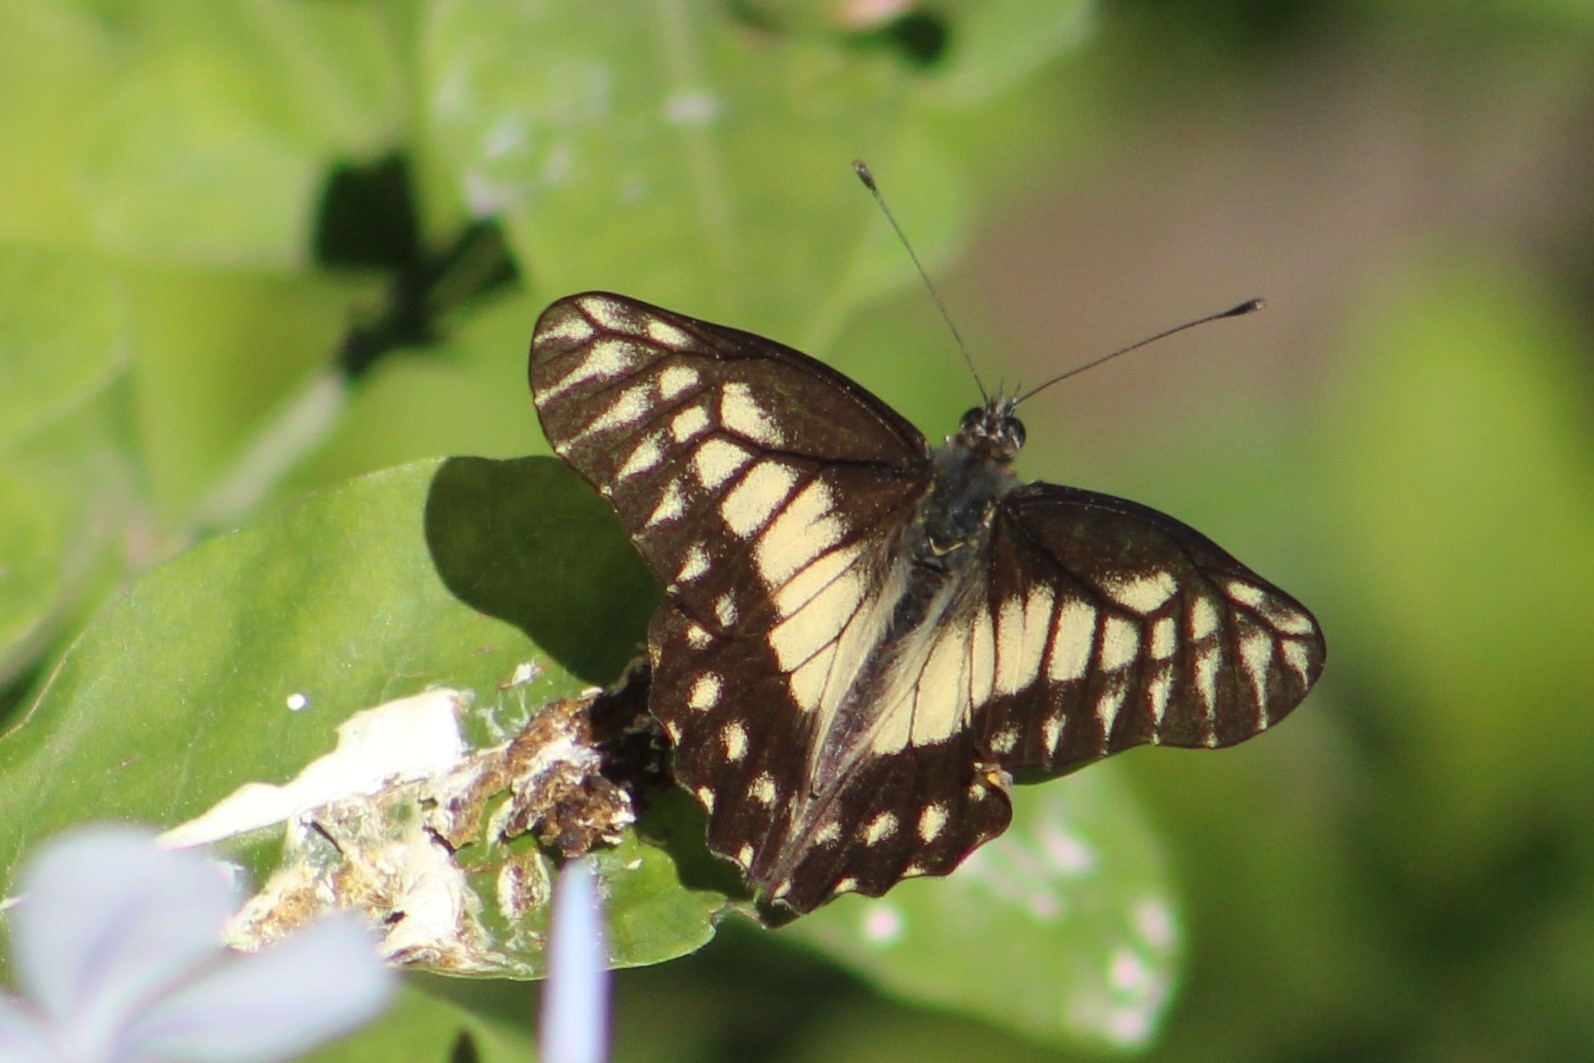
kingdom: Animalia
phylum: Arthropoda
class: Insecta
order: Lepidoptera
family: Pieridae
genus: Archonias
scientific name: Archonias nimbice
